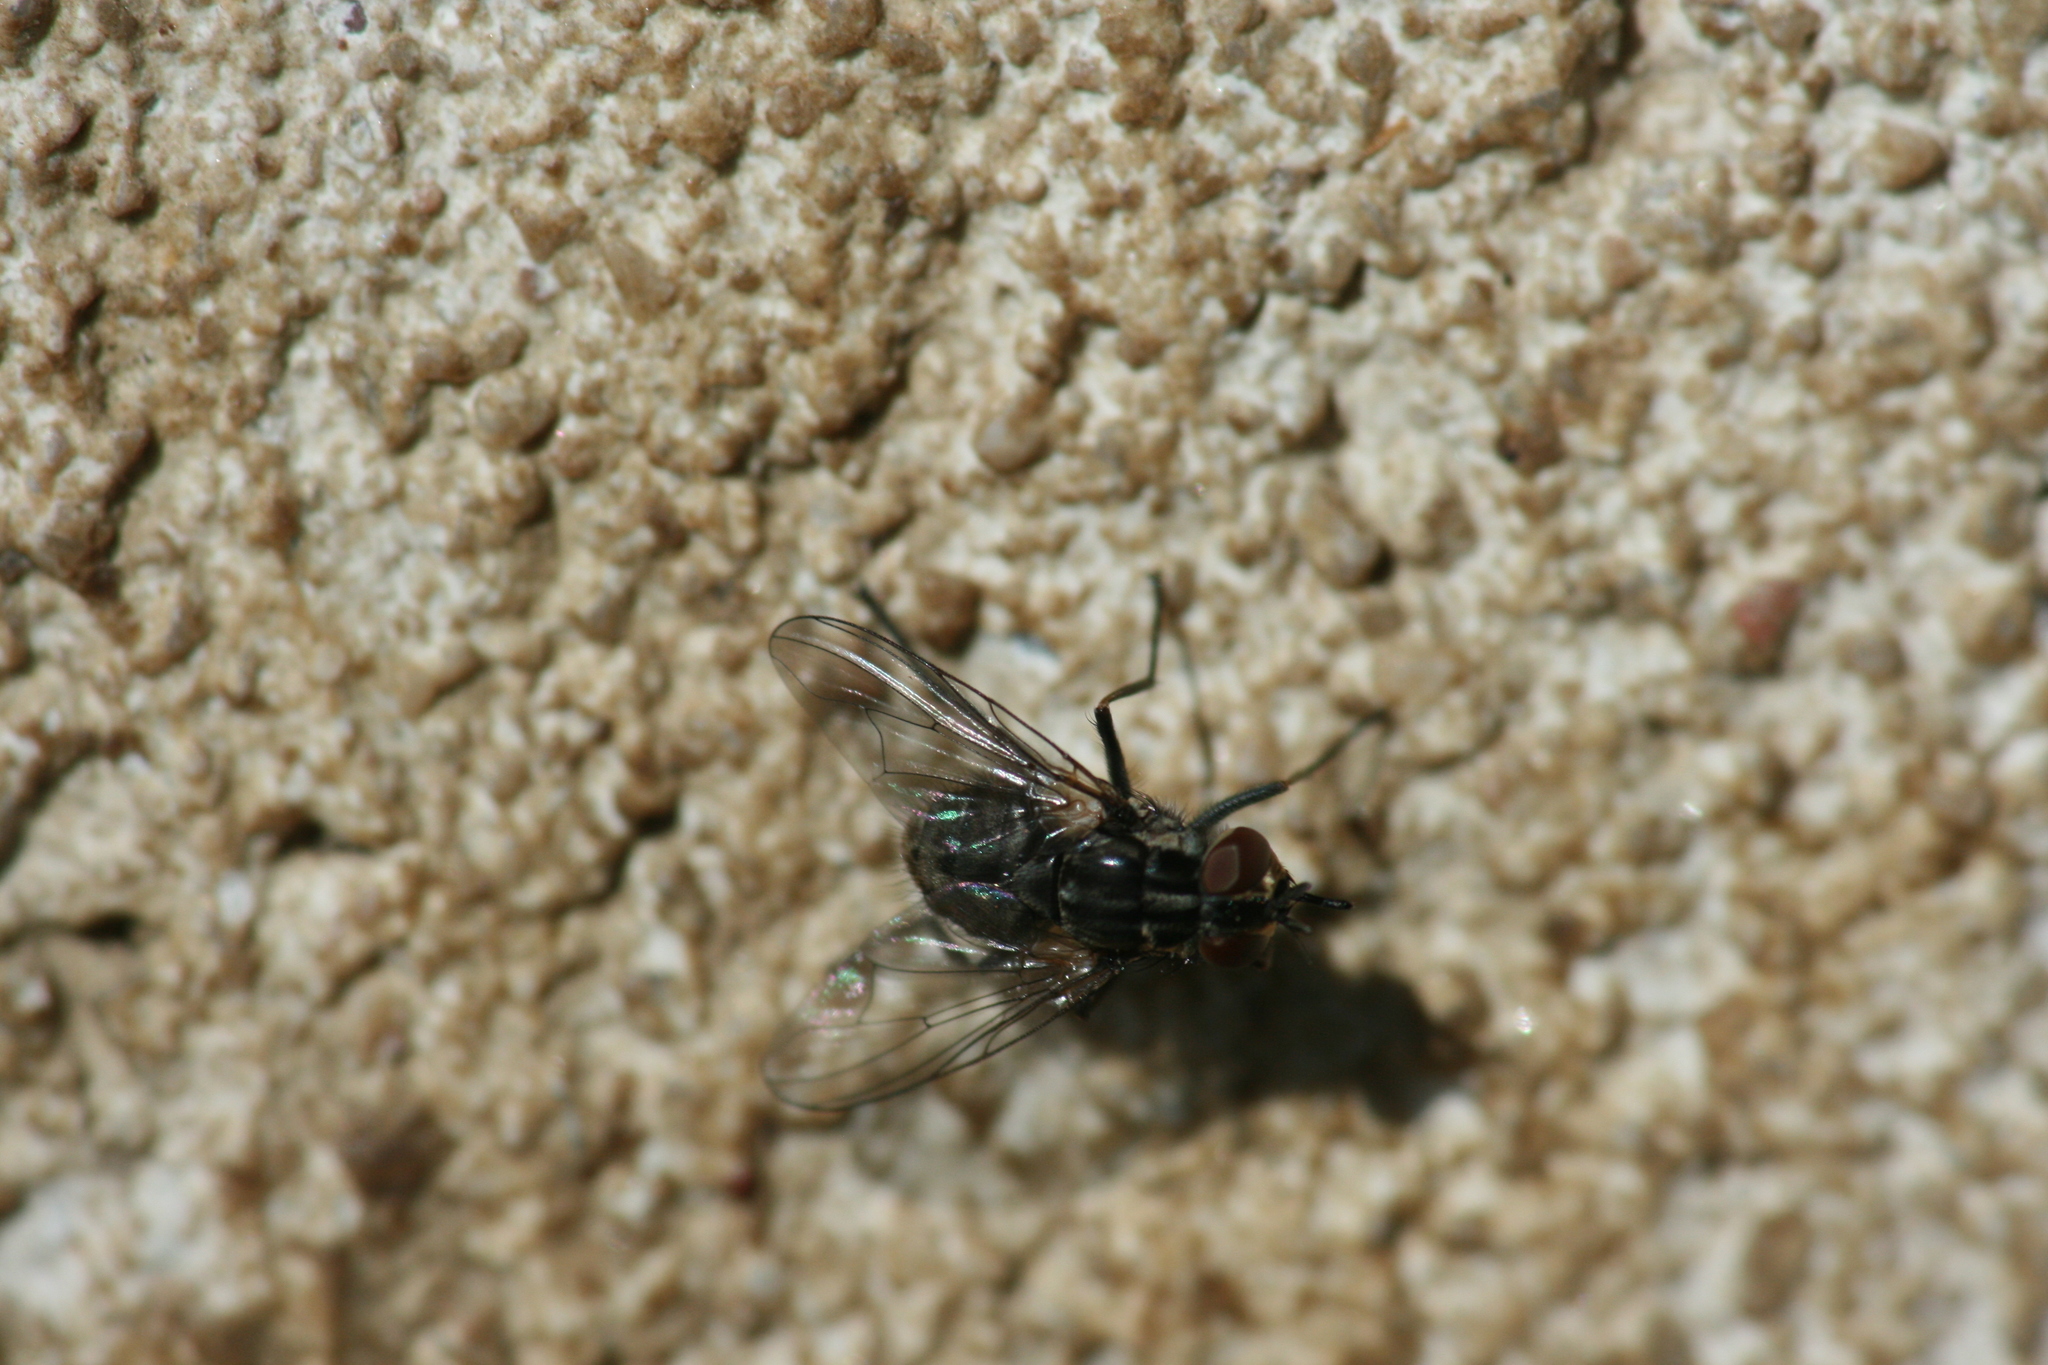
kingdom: Animalia
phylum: Arthropoda
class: Insecta
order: Diptera
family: Muscidae
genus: Stomoxys
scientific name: Stomoxys calcitrans
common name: Stable fly
